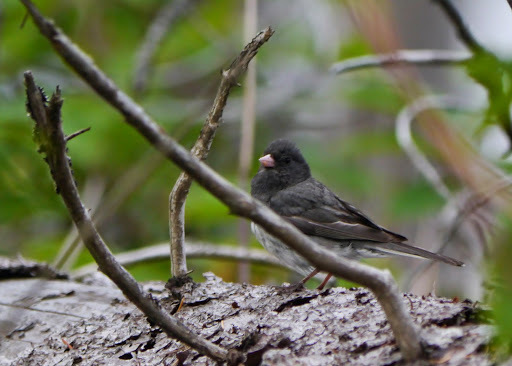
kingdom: Animalia
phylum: Chordata
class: Aves
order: Passeriformes
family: Passerellidae
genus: Junco
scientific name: Junco hyemalis
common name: Dark-eyed junco
